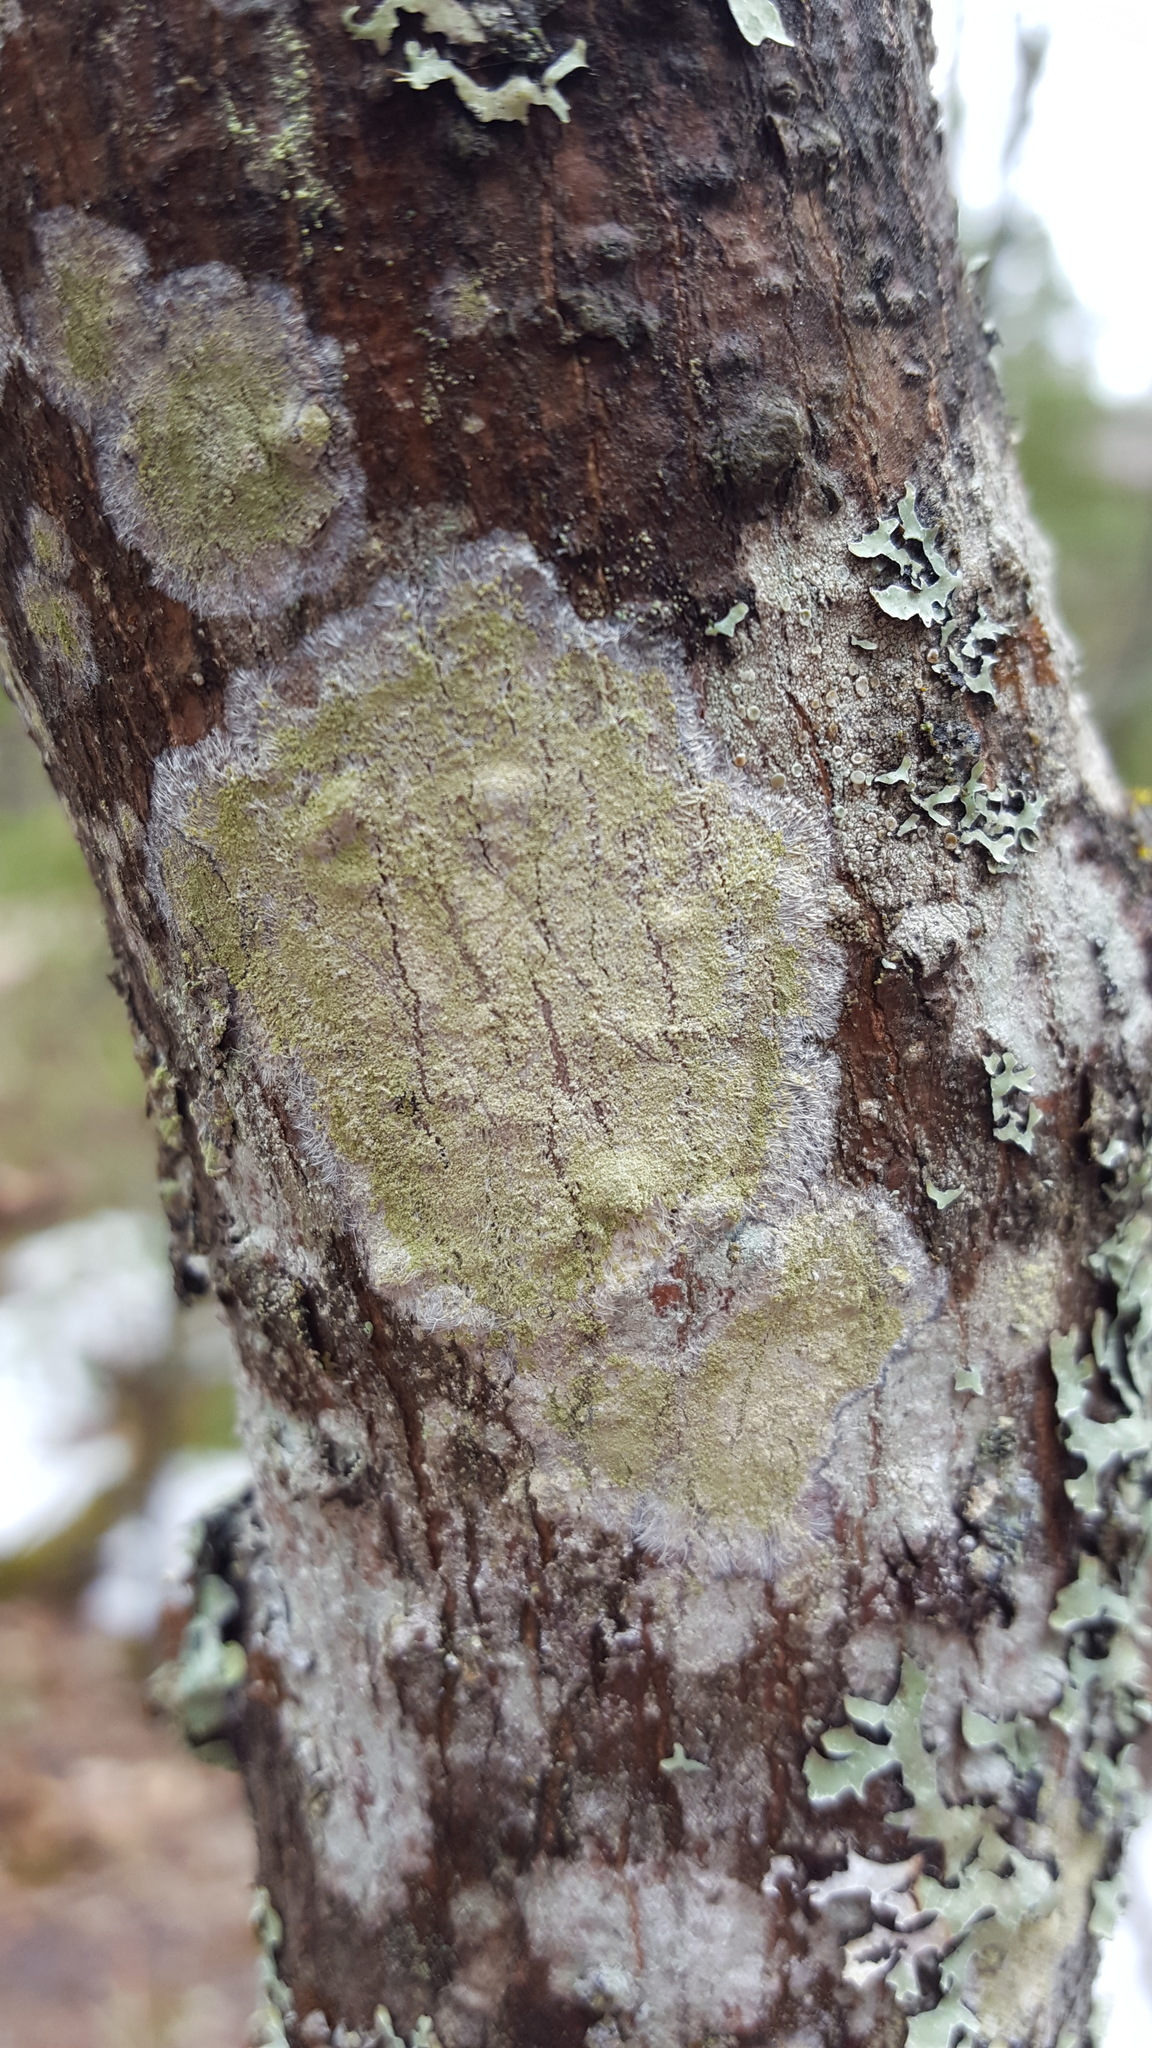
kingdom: Fungi
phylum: Ascomycota
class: Lecanoromycetes
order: Pertusariales
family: Pertusariaceae
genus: Verseghya
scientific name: Verseghya thysanophora
